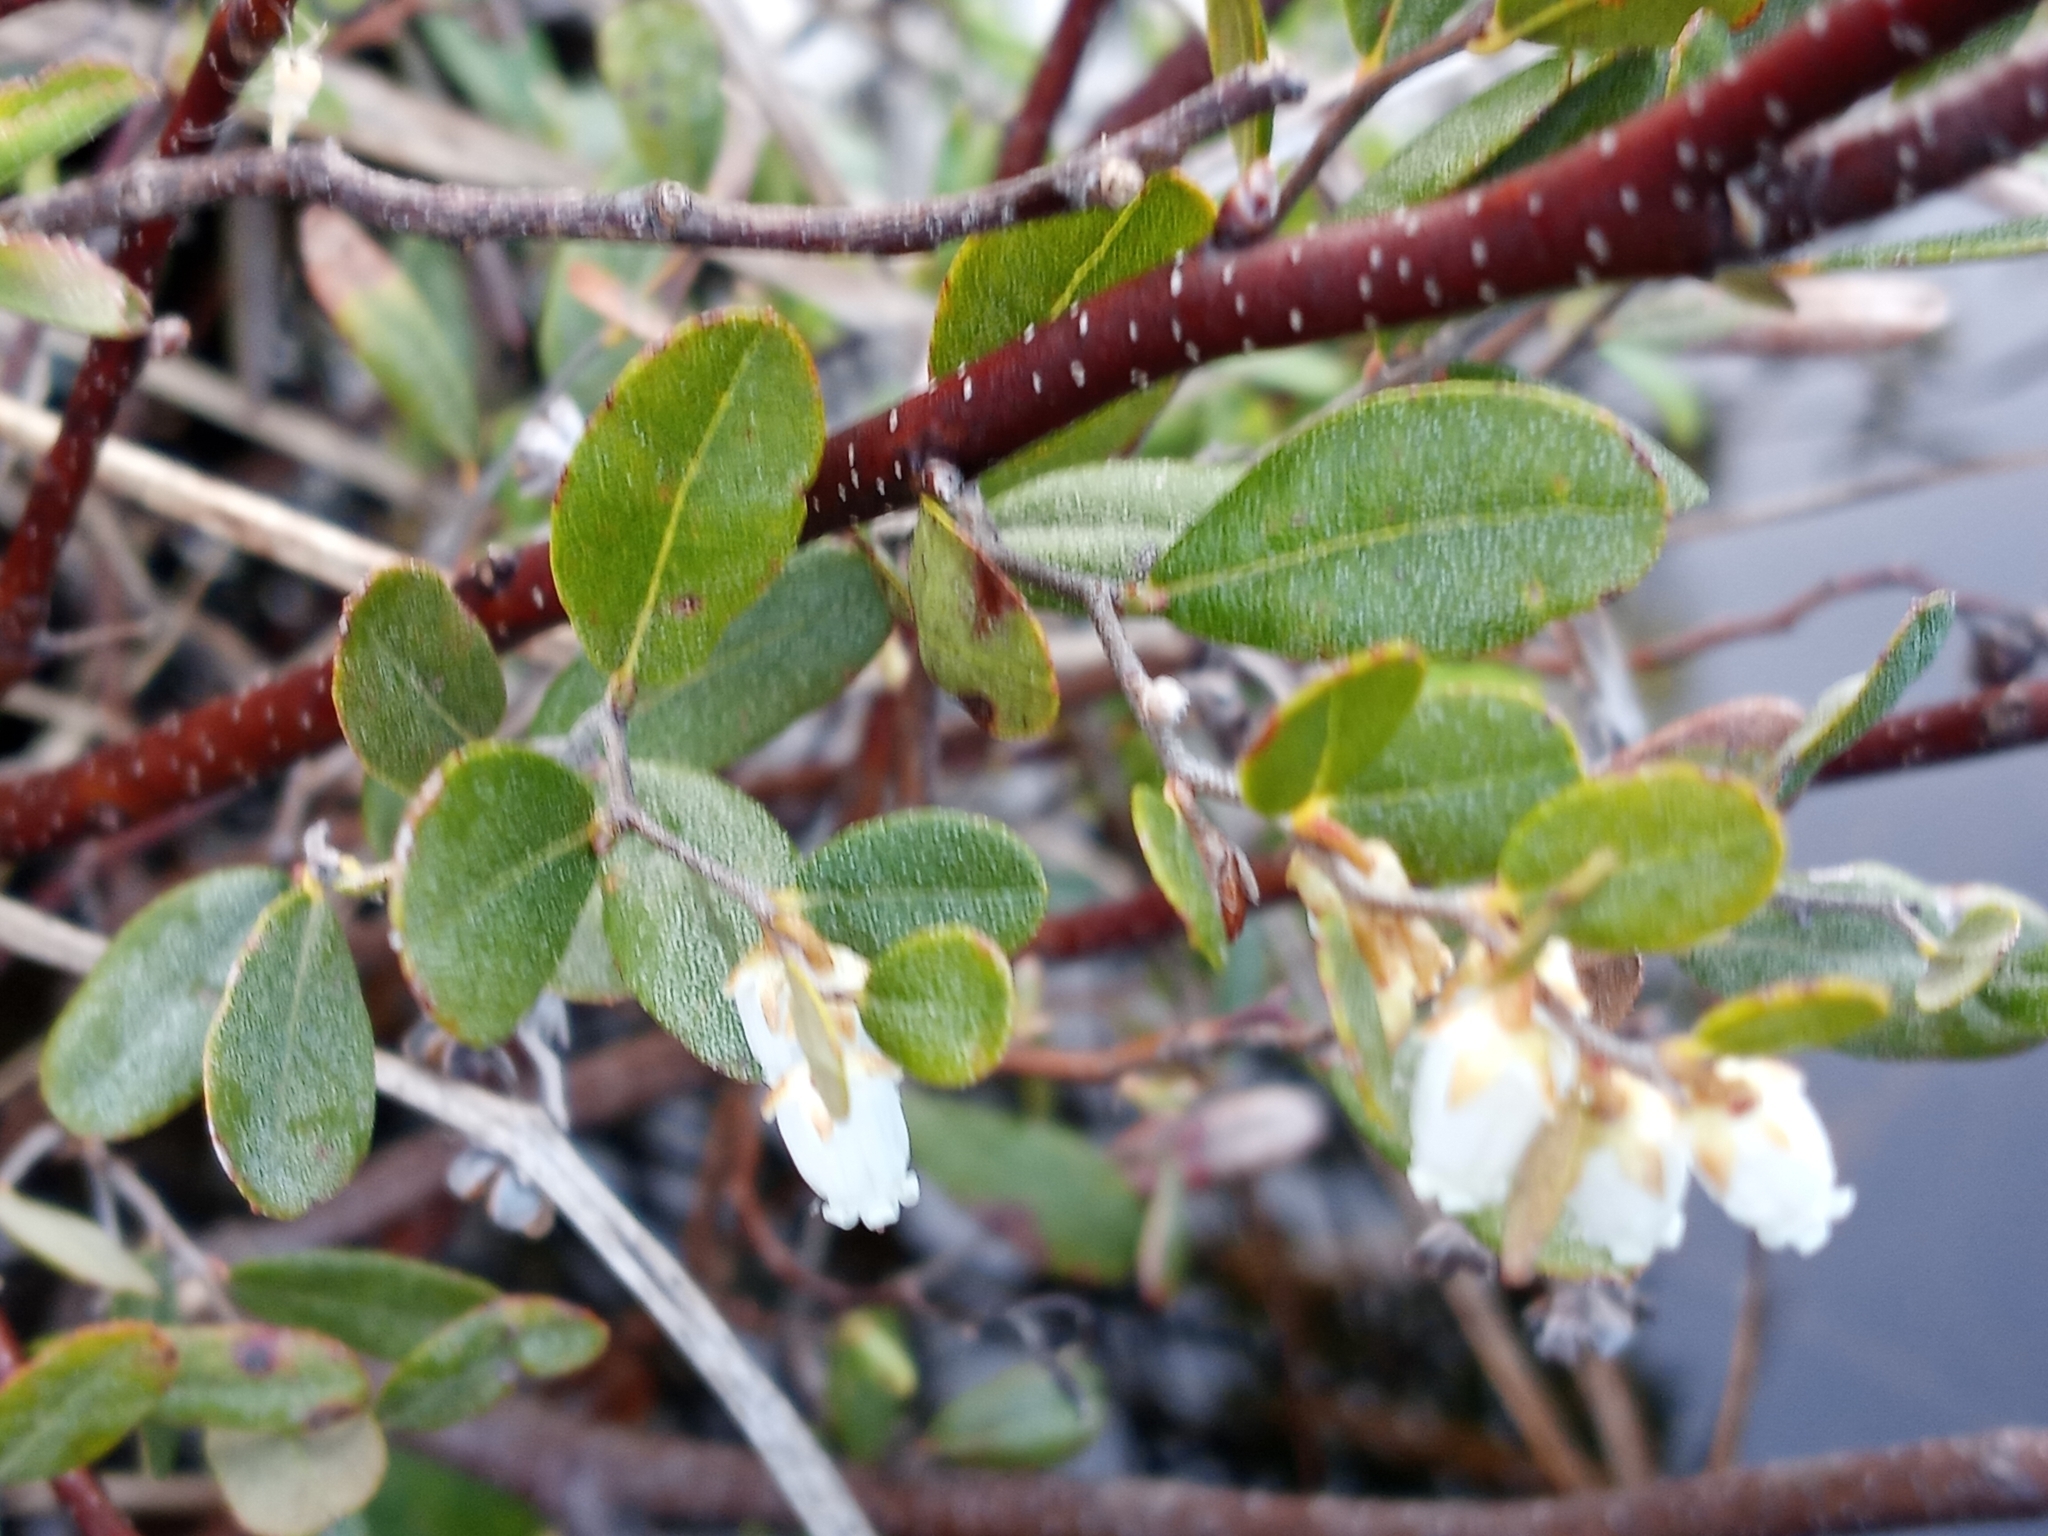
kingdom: Plantae
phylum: Tracheophyta
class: Magnoliopsida
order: Ericales
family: Ericaceae
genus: Chamaedaphne
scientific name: Chamaedaphne calyculata
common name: Leatherleaf
